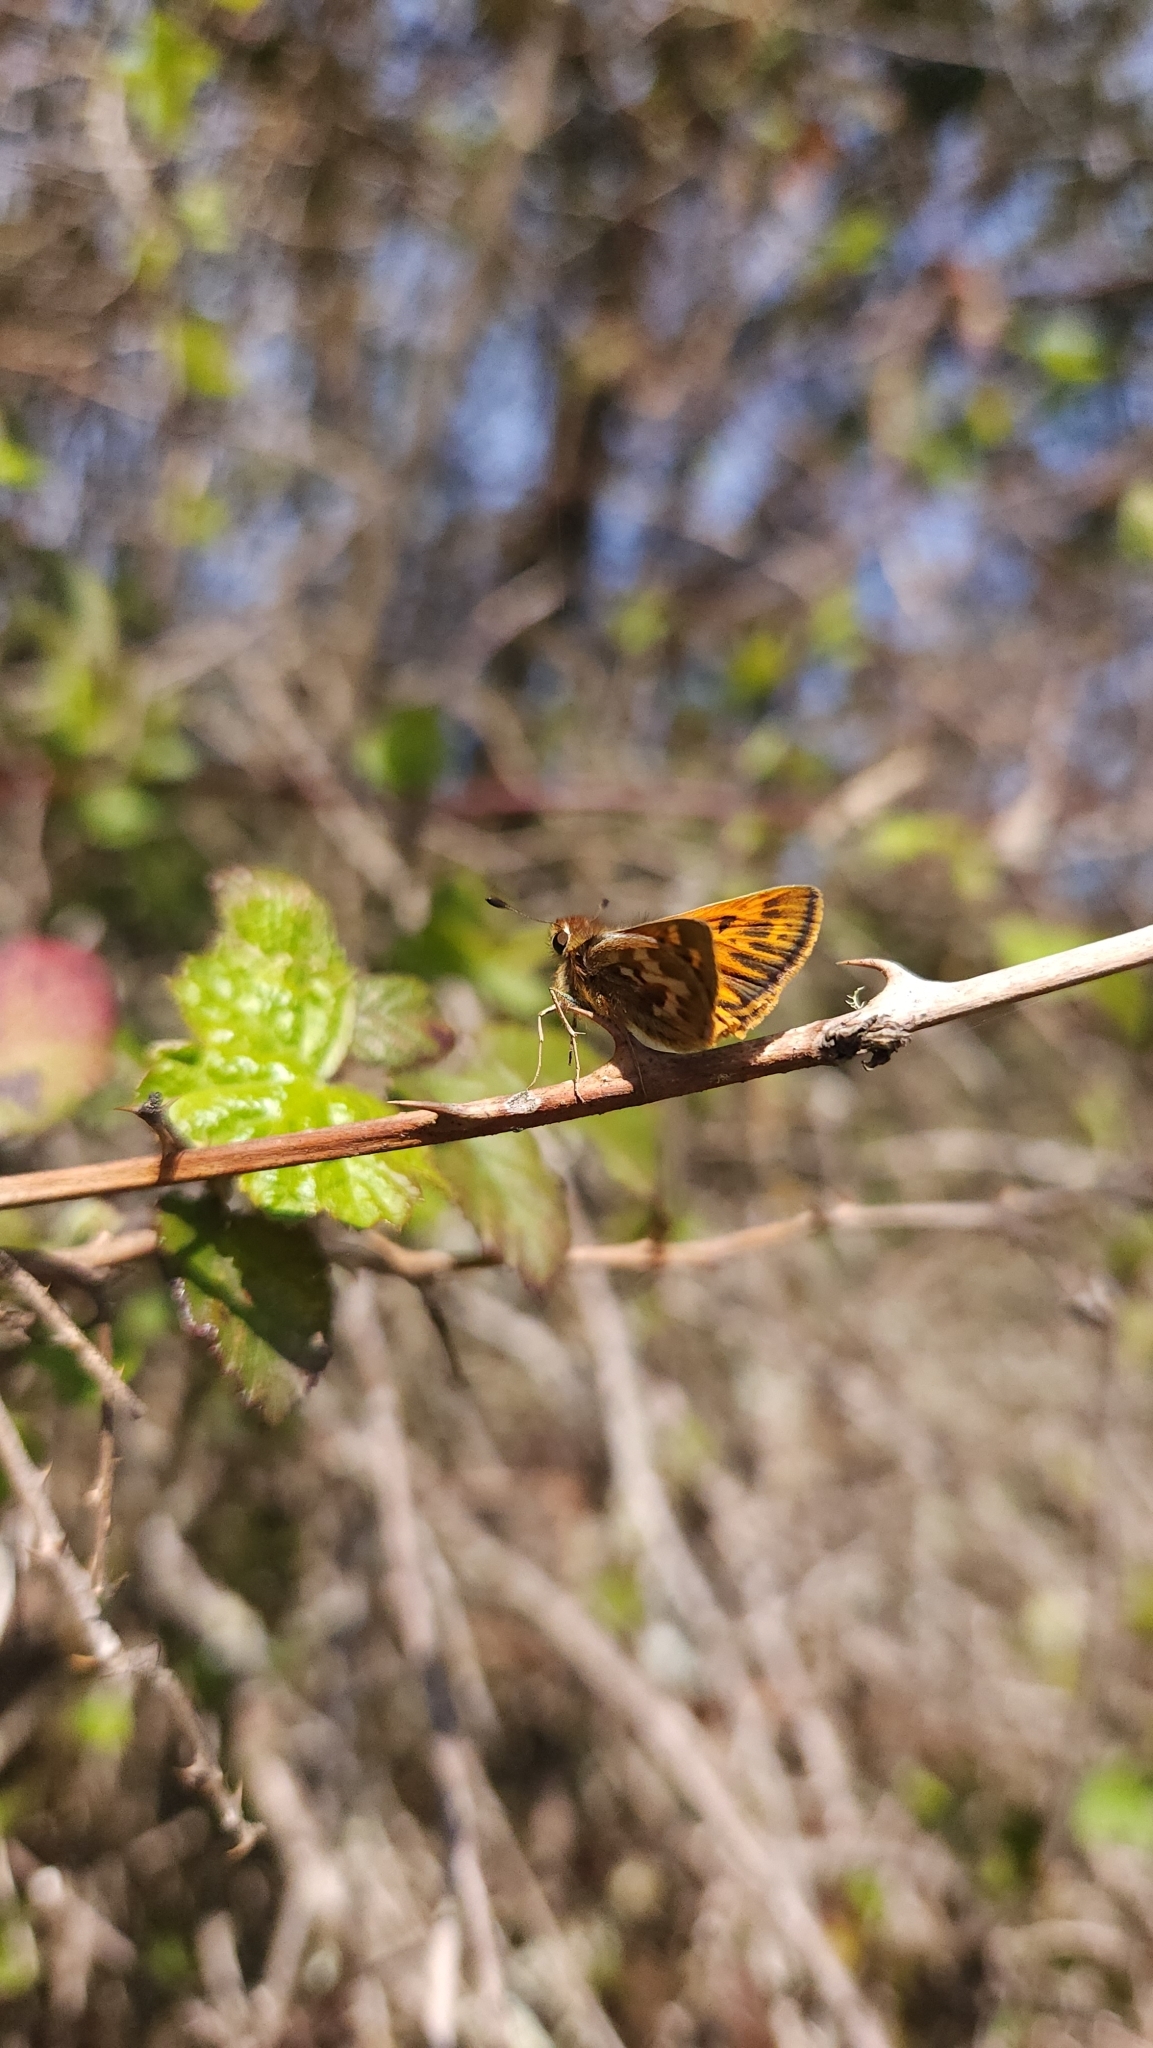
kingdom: Animalia
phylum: Arthropoda
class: Insecta
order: Lepidoptera
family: Hesperiidae
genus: Hylephila
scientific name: Hylephila signata
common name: Signata skipper
